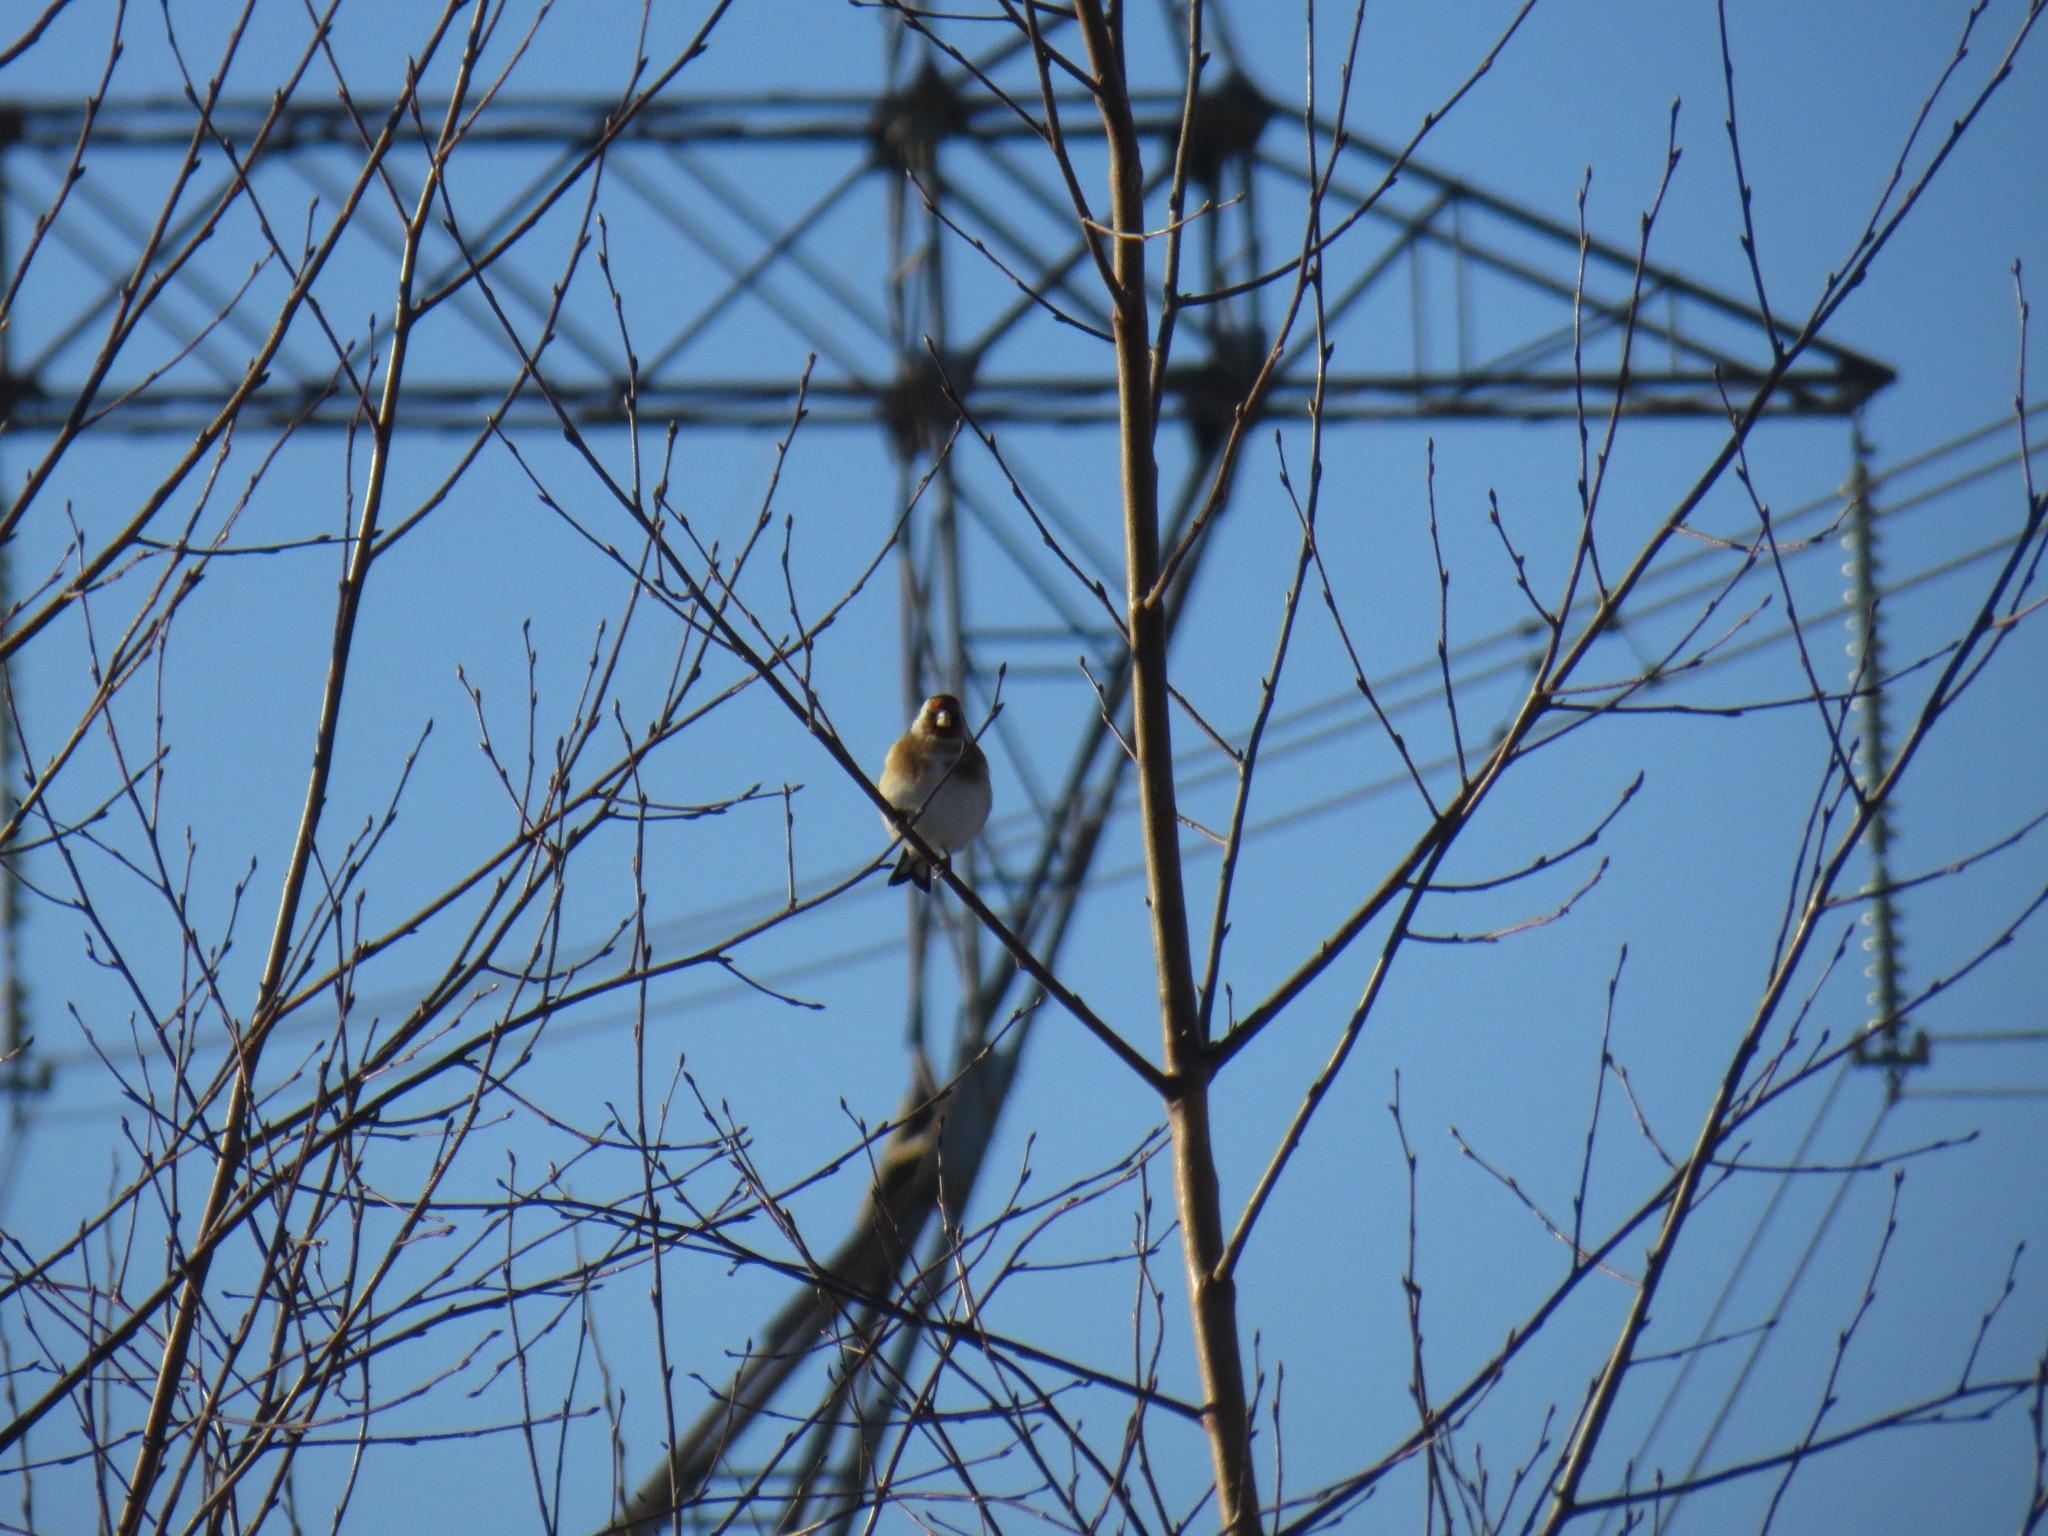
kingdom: Animalia
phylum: Chordata
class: Aves
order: Passeriformes
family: Fringillidae
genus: Carduelis
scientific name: Carduelis carduelis
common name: European goldfinch
